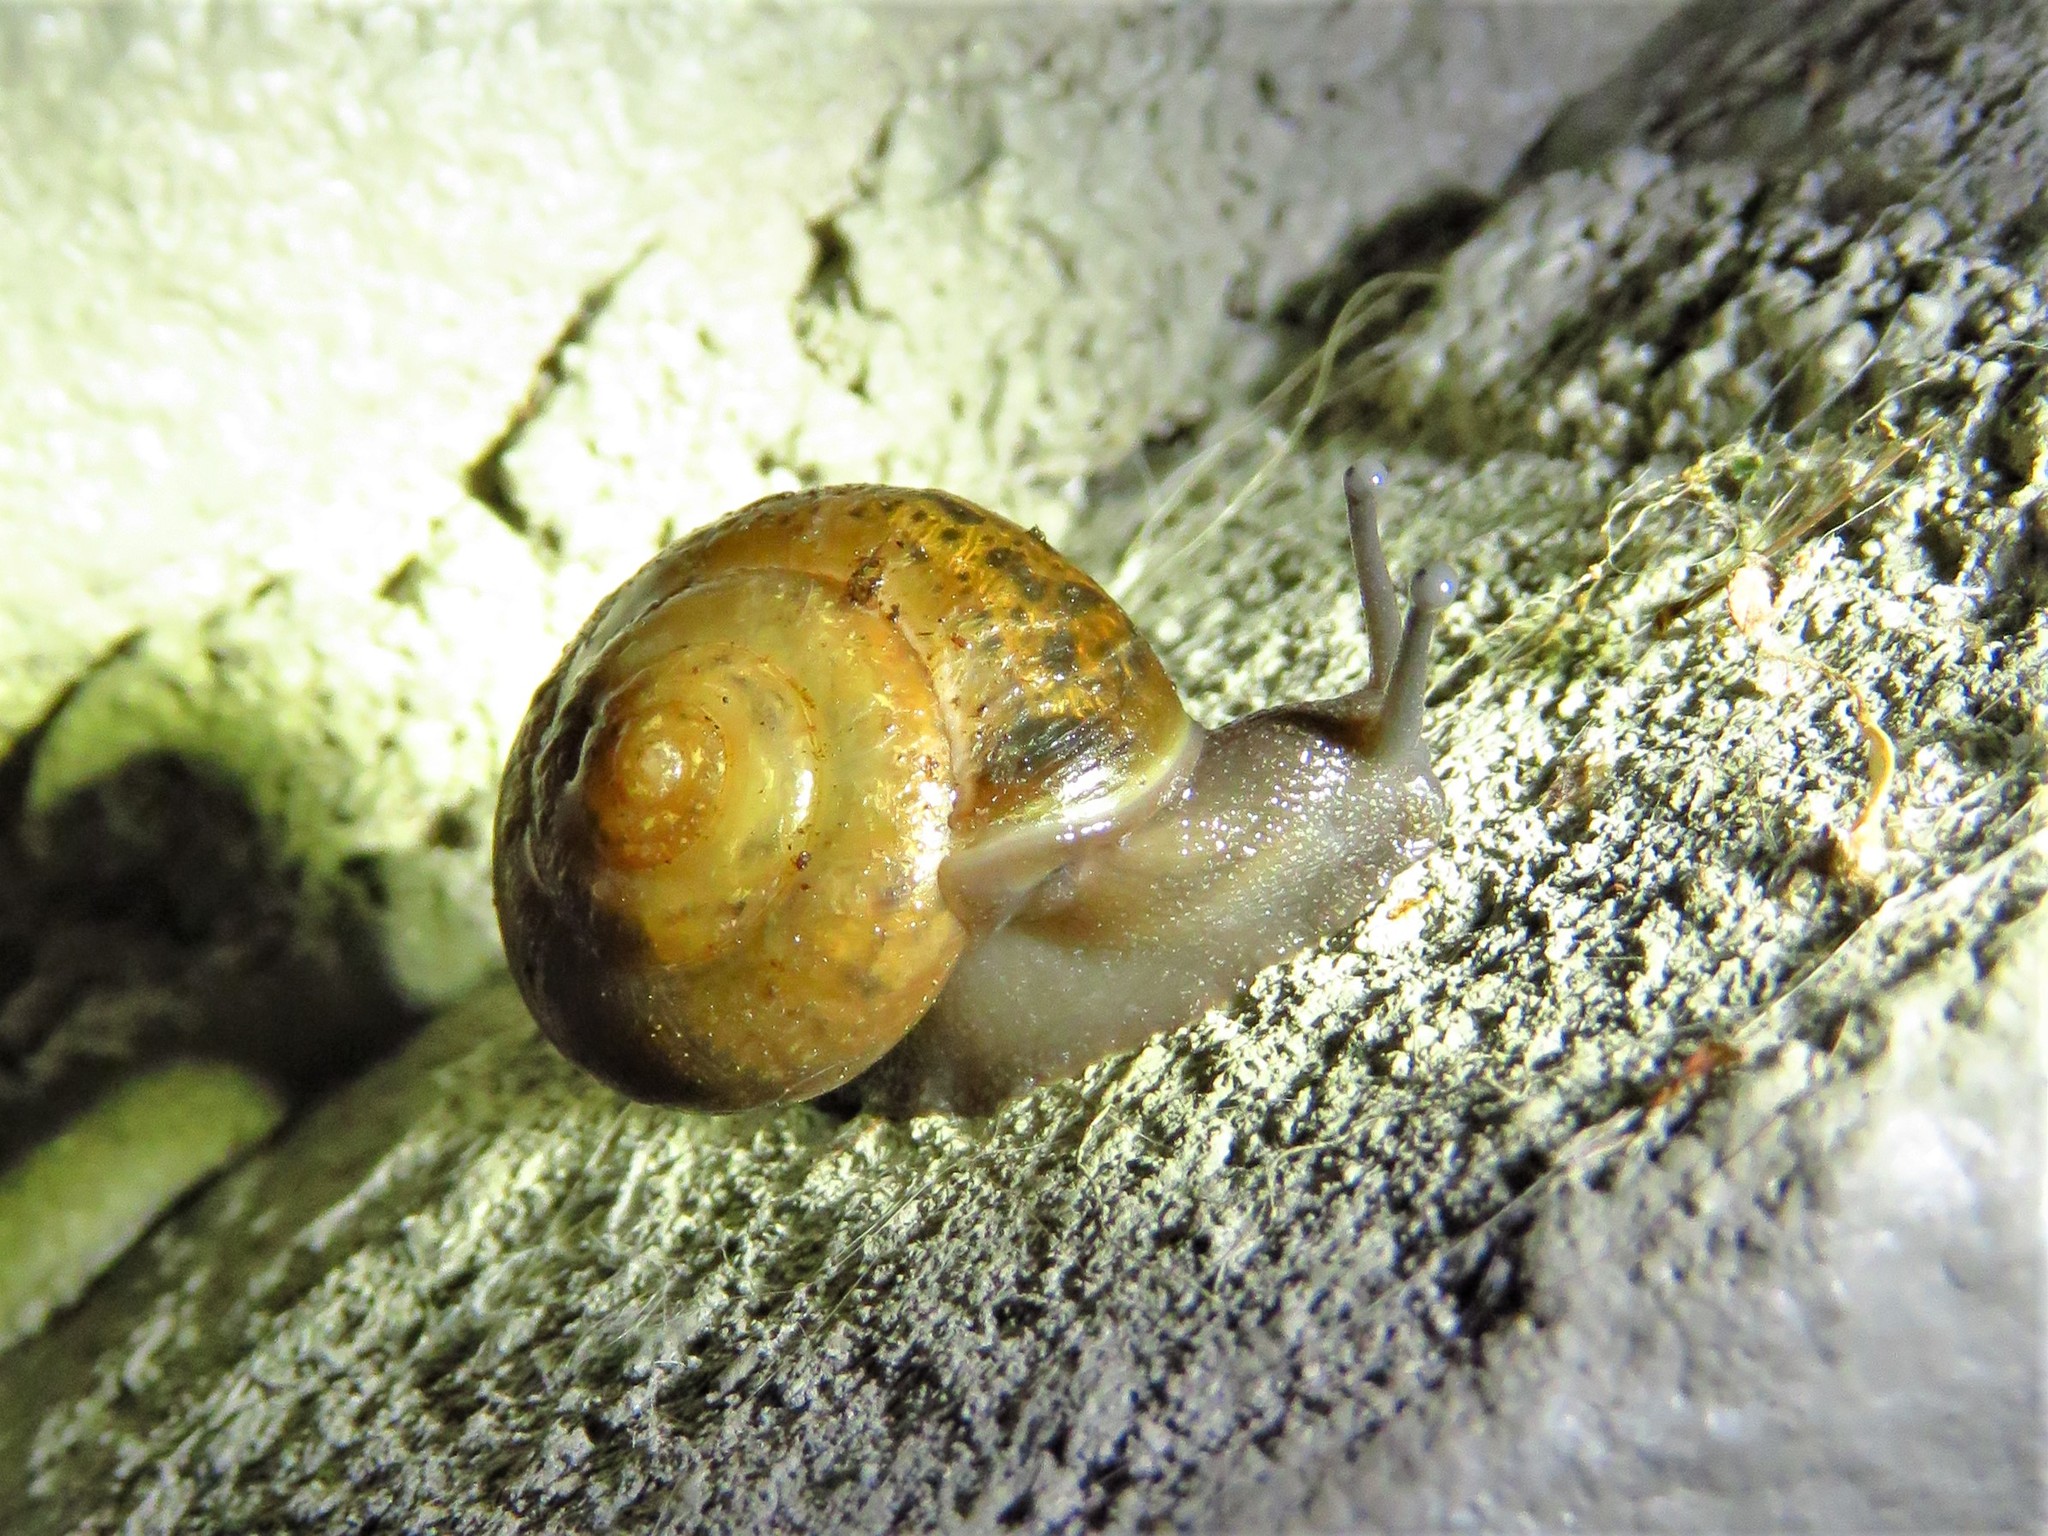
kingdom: Animalia
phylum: Mollusca
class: Gastropoda
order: Stylommatophora
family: Camaenidae
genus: Bradybaena
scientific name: Bradybaena similaris
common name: Asian trampsnail
